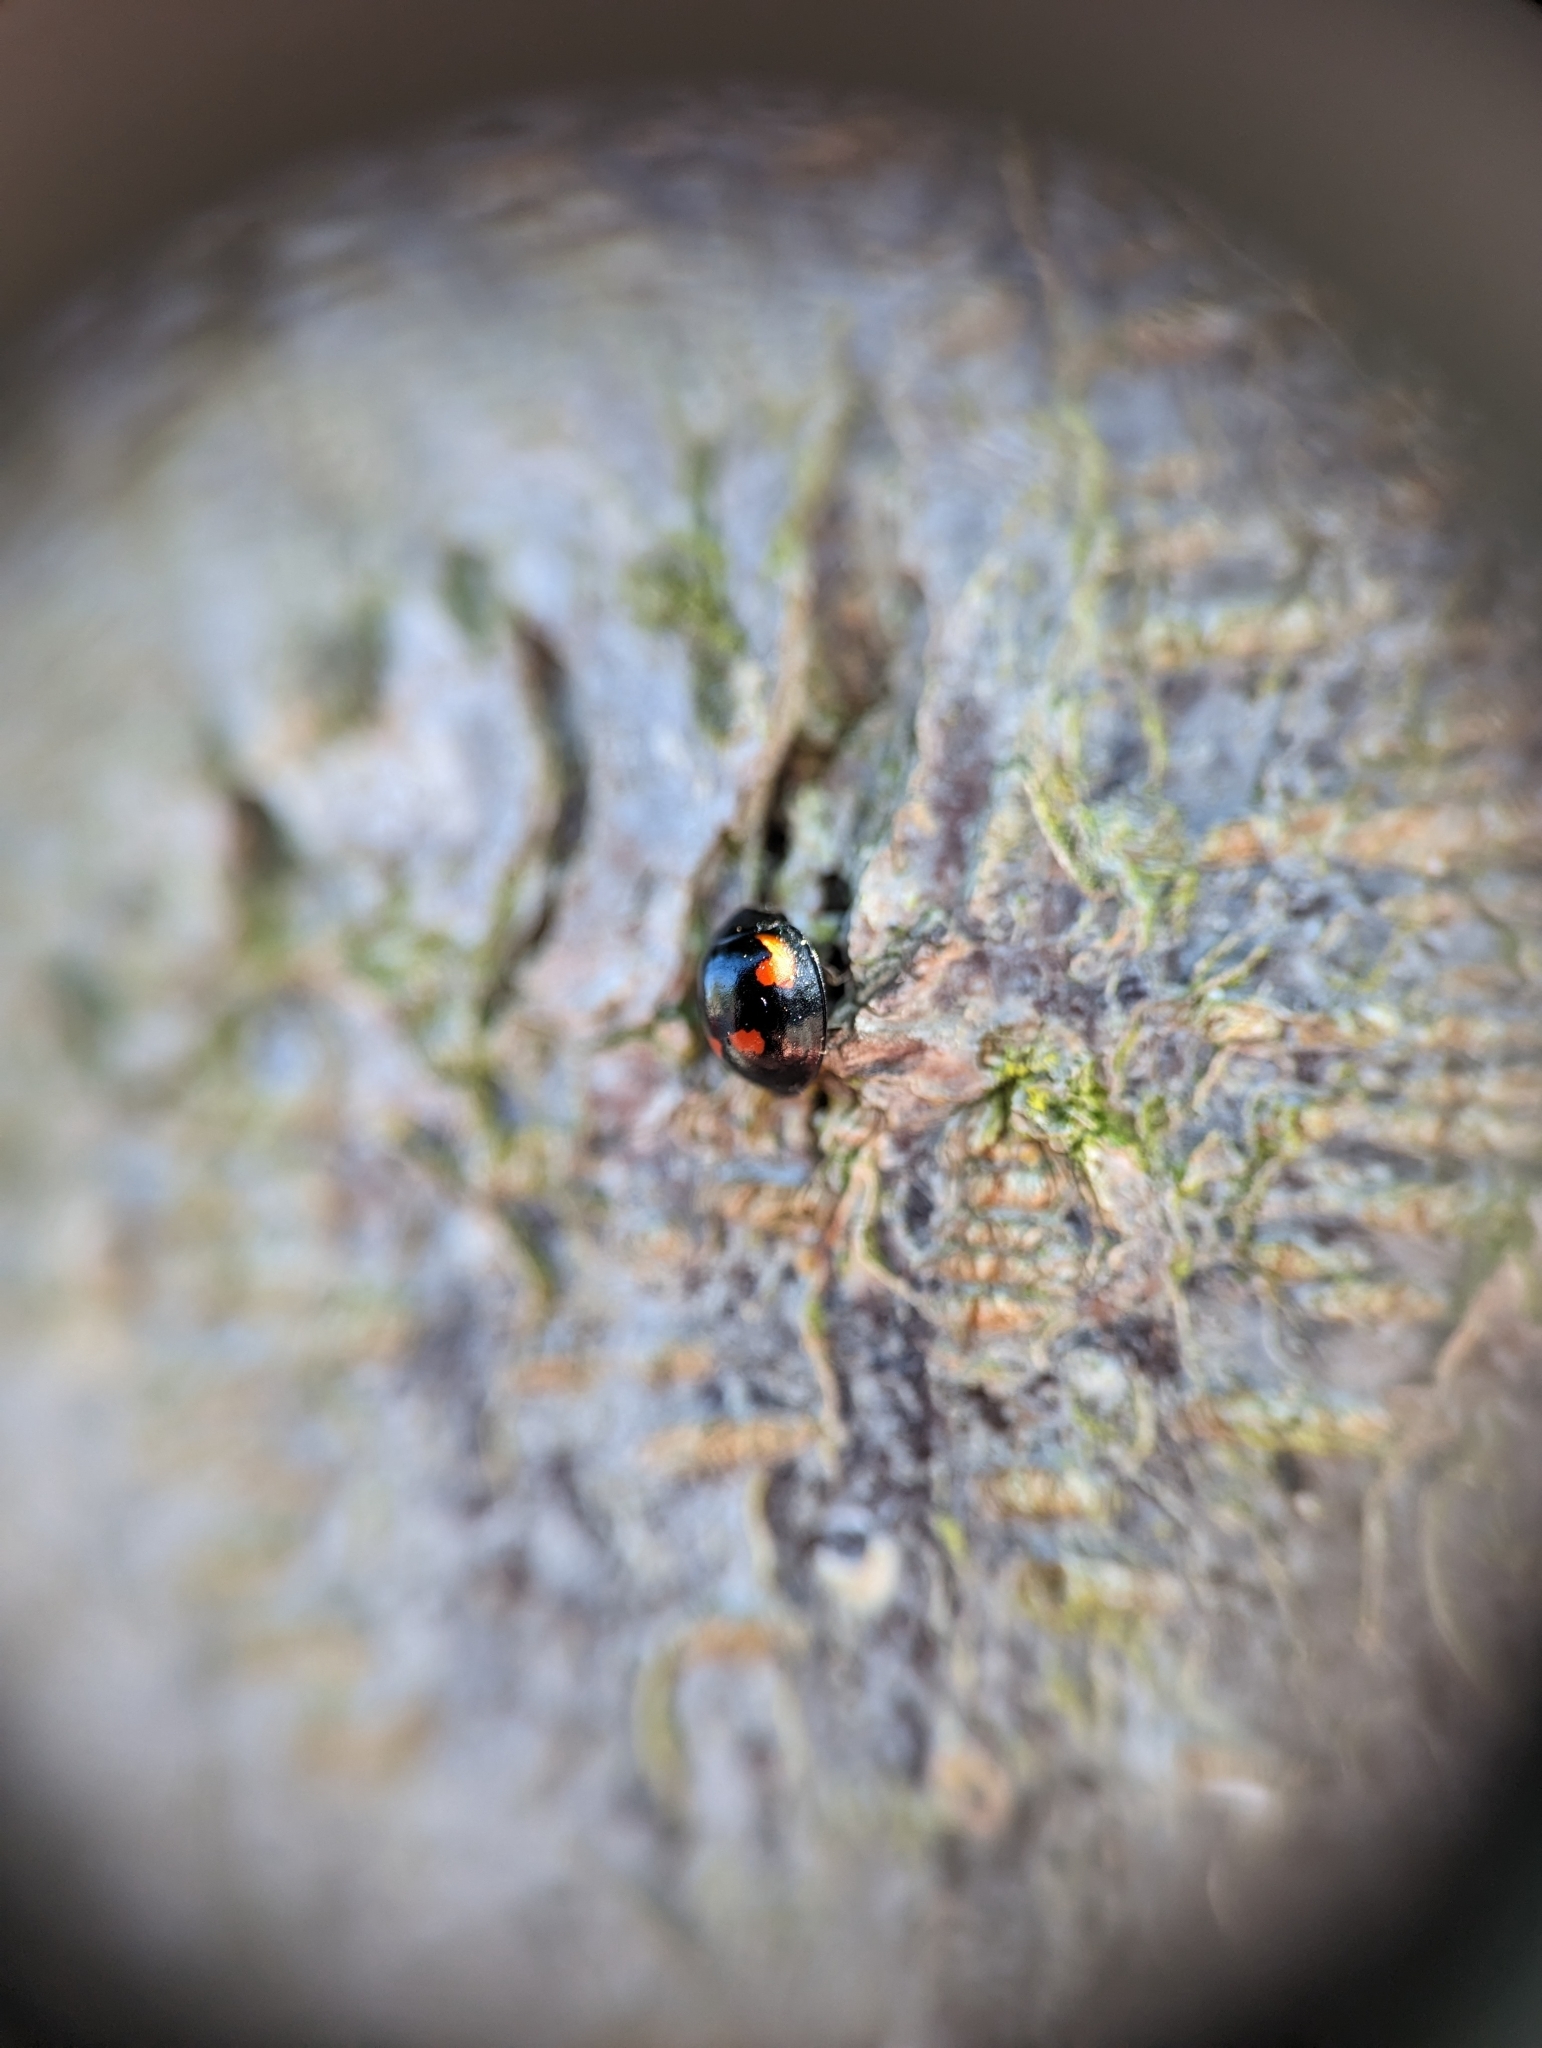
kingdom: Animalia
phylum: Arthropoda
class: Insecta
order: Coleoptera
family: Coccinellidae
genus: Brumus
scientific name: Brumus quadripustulatus
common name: Ladybird beetle
